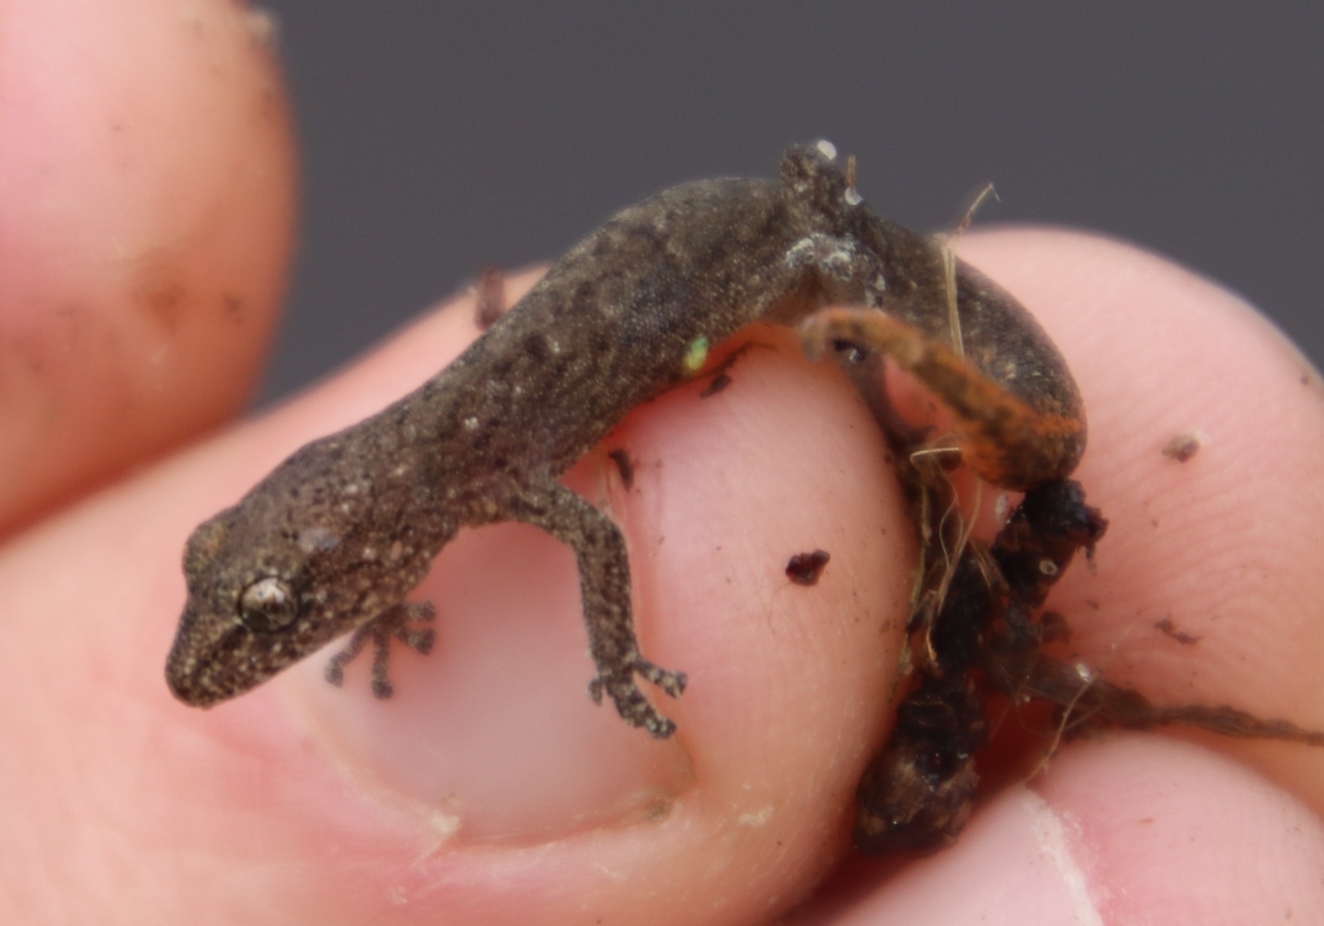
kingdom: Animalia
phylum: Chordata
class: Squamata
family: Gekkonidae
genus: Afrogecko
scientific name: Afrogecko porphyreus
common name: Marbled leaf-toed gecko
